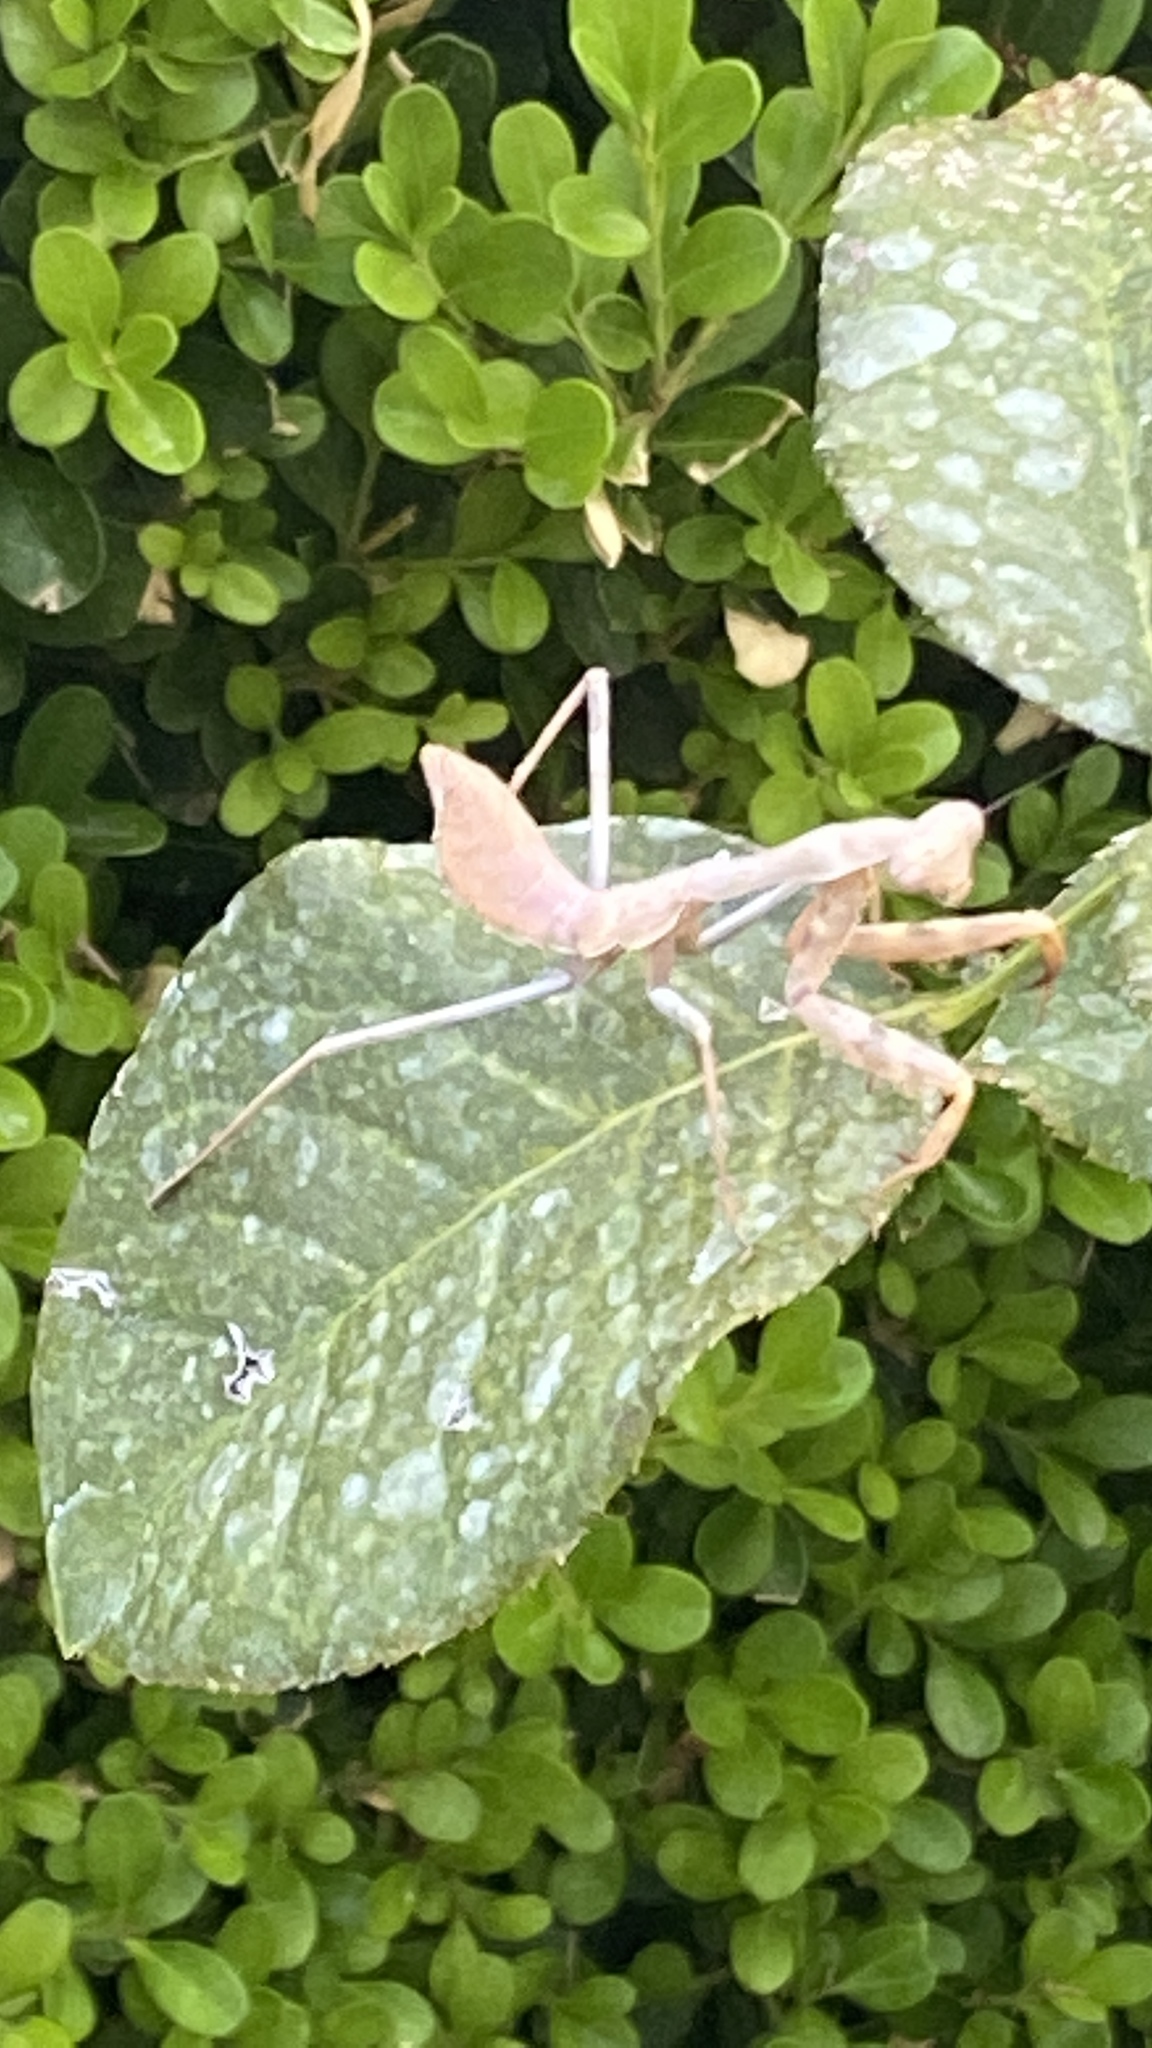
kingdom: Animalia
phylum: Arthropoda
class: Insecta
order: Mantodea
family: Mantidae
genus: Stagmomantis
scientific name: Stagmomantis limbata
